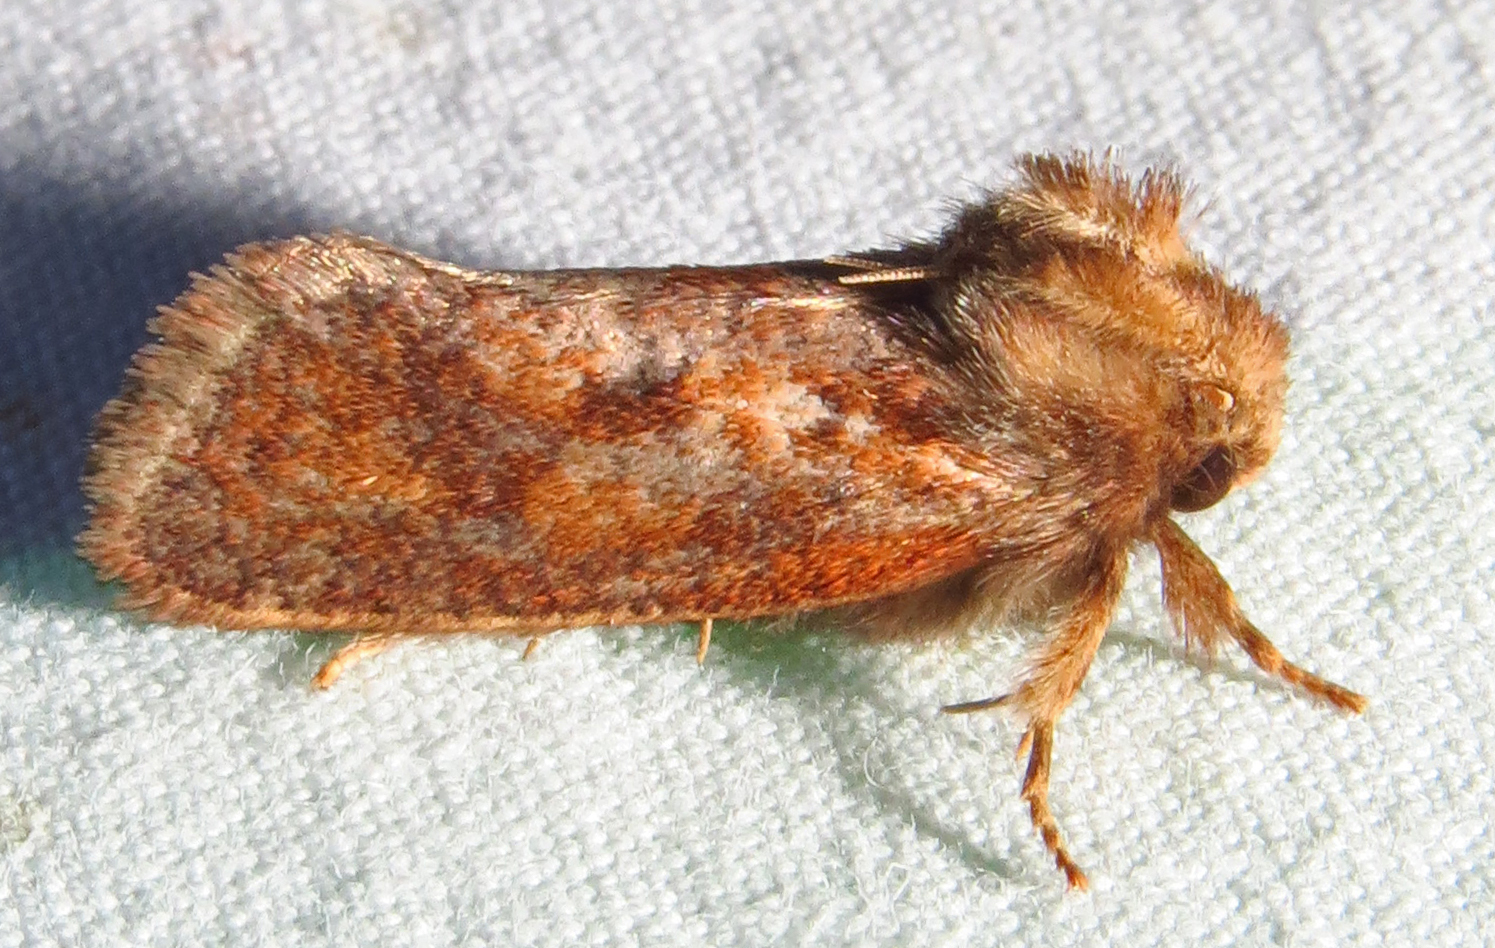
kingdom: Animalia
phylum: Arthropoda
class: Insecta
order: Lepidoptera
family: Tineidae
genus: Acrolophus
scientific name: Acrolophus plumifrontella
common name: Eastern grass tubeworm moth
